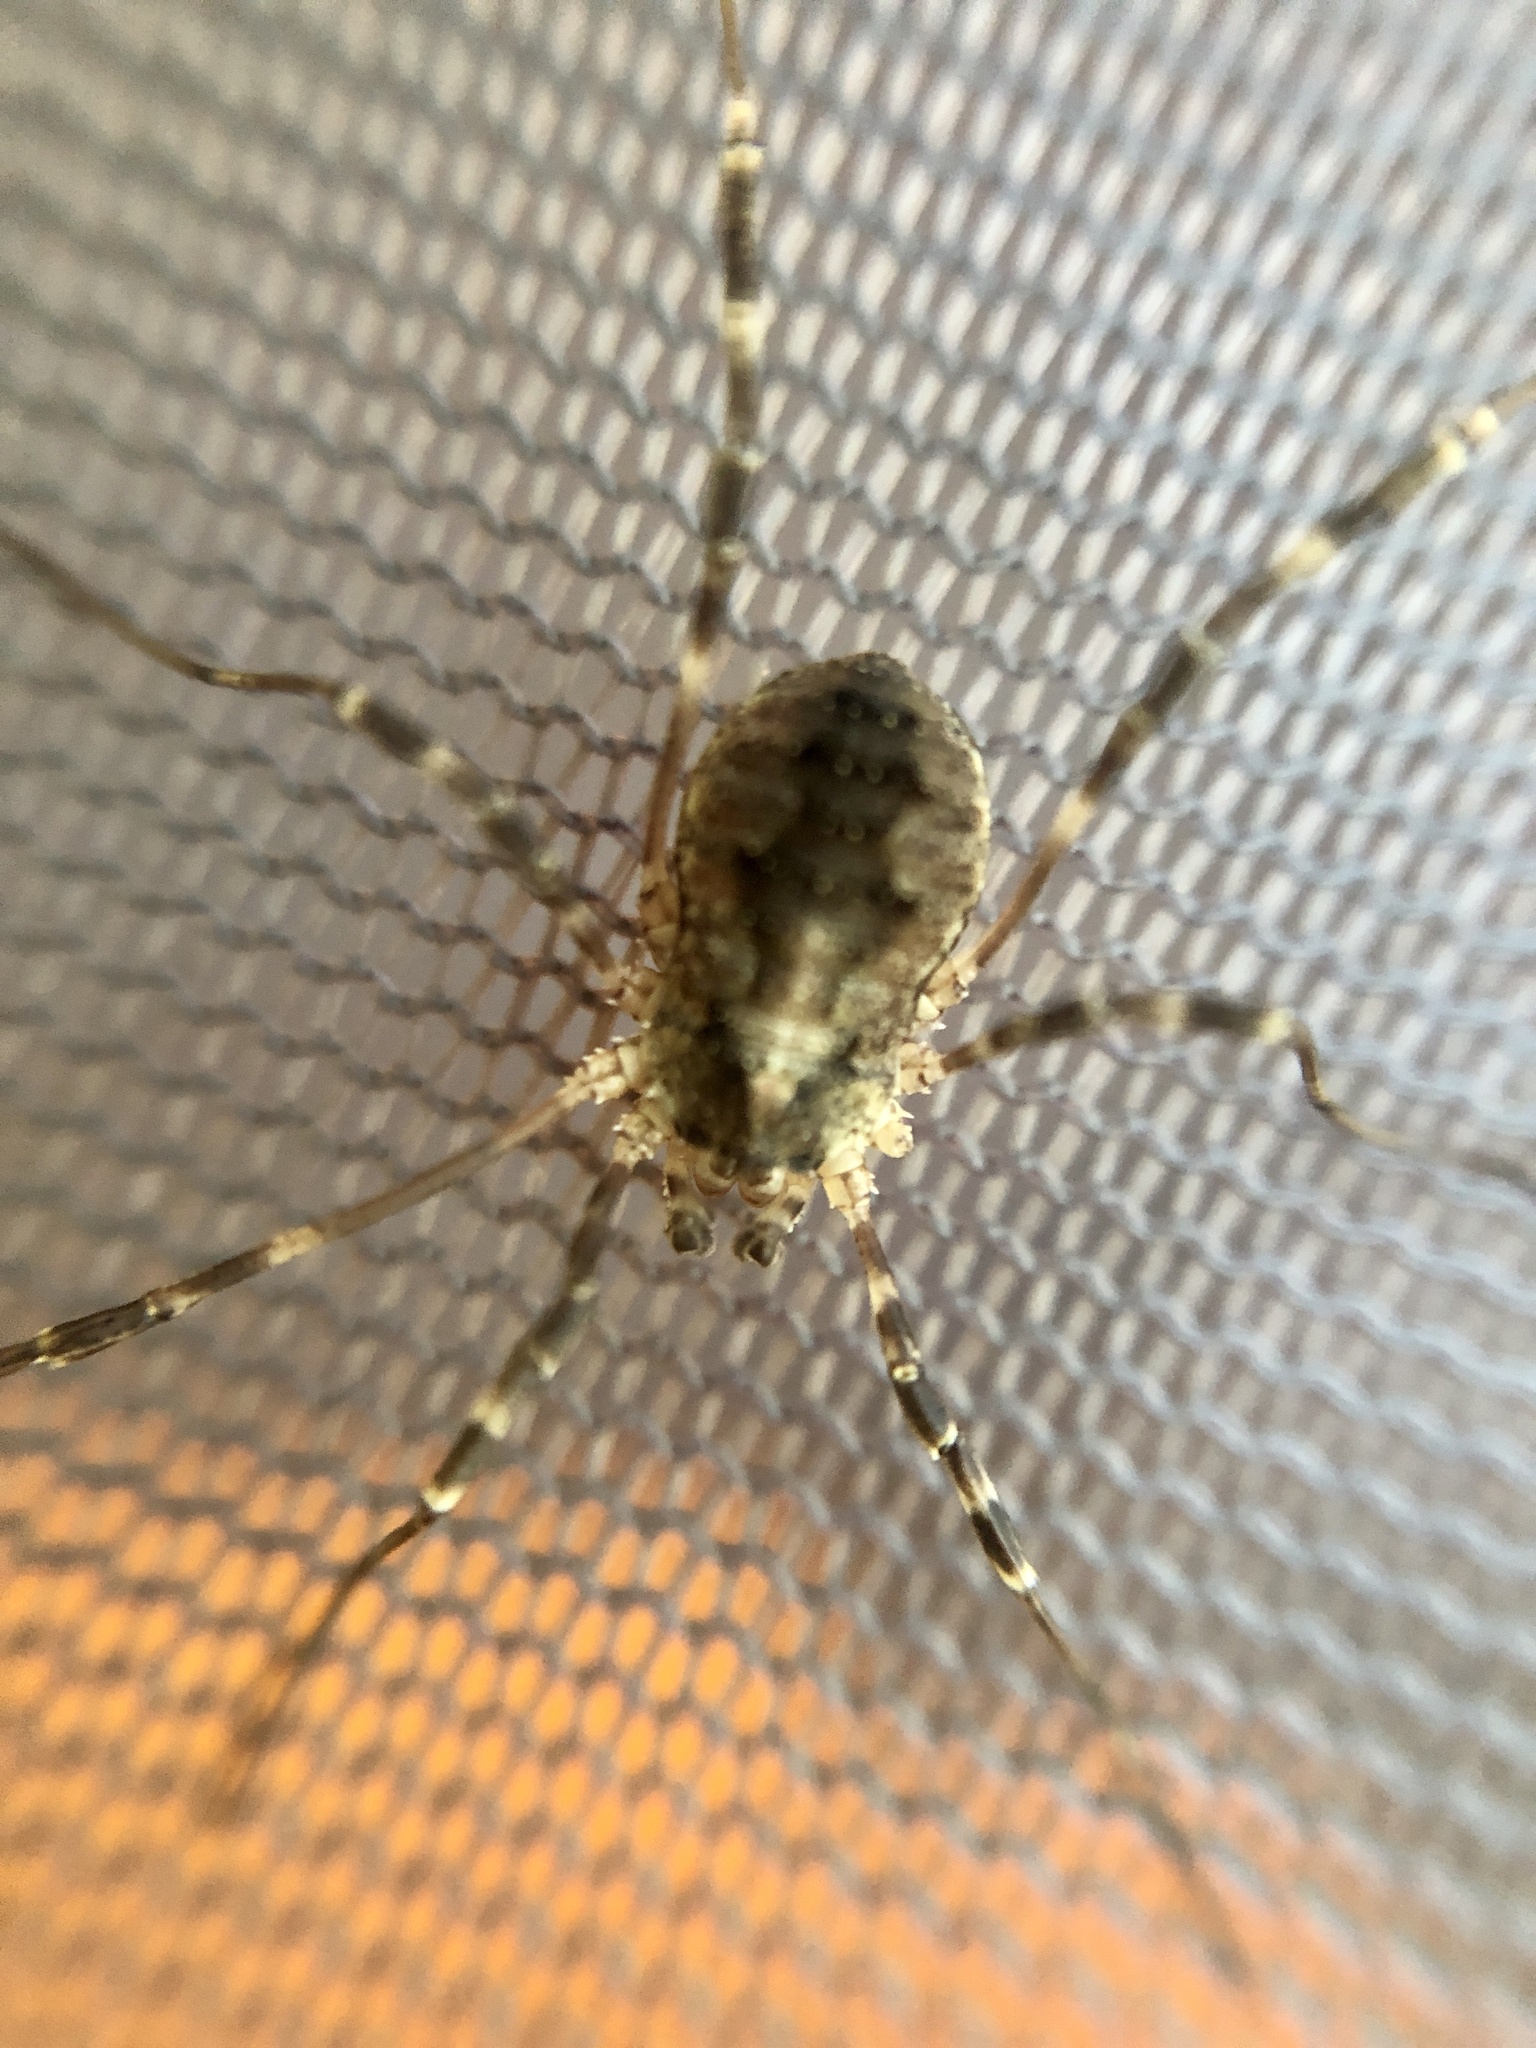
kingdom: Animalia
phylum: Arthropoda
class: Arachnida
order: Opiliones
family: Phalangiidae
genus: Odiellus
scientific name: Odiellus pictus
